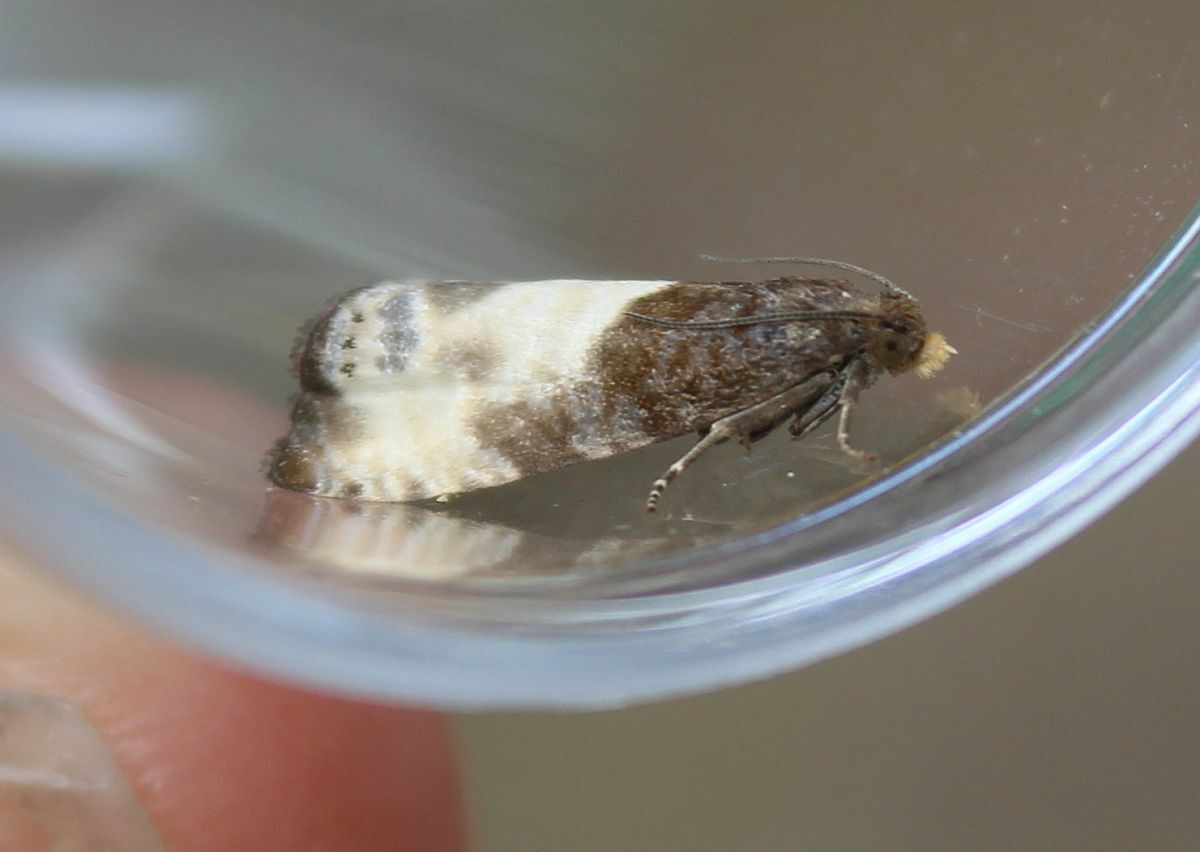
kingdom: Animalia
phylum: Arthropoda
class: Insecta
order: Lepidoptera
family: Tortricidae
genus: Notocelia
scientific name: Notocelia cynosbatella
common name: Yellow-faced bell moth
